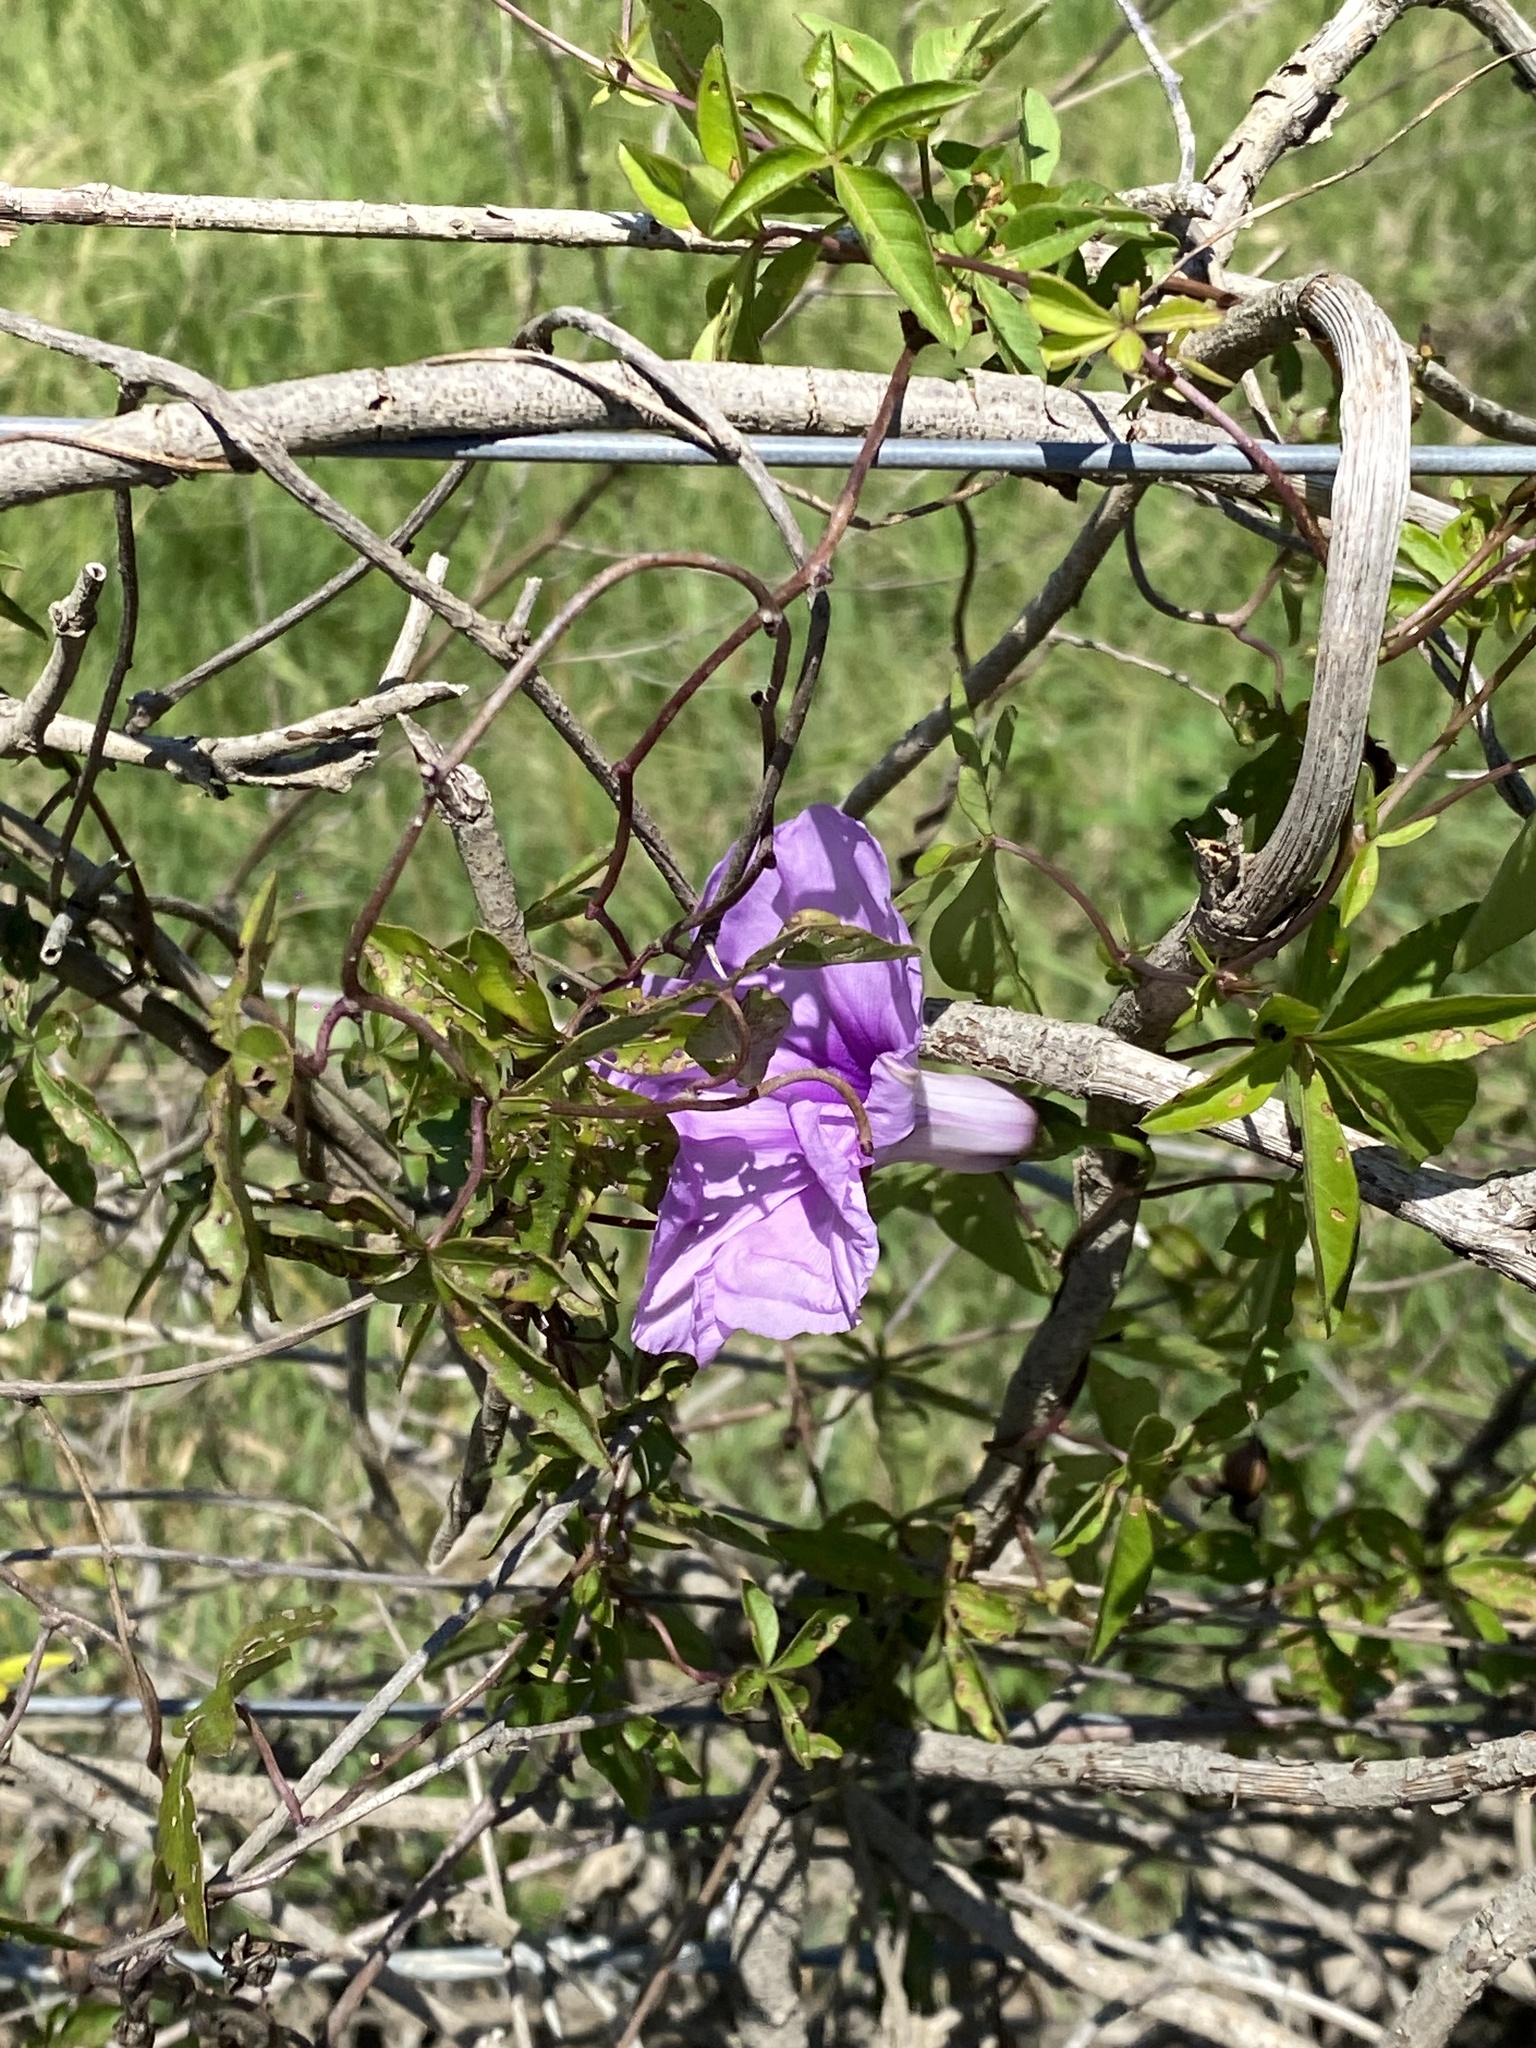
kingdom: Plantae
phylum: Tracheophyta
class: Magnoliopsida
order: Solanales
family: Convolvulaceae
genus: Ipomoea
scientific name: Ipomoea cairica
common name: Mile a minute vine
